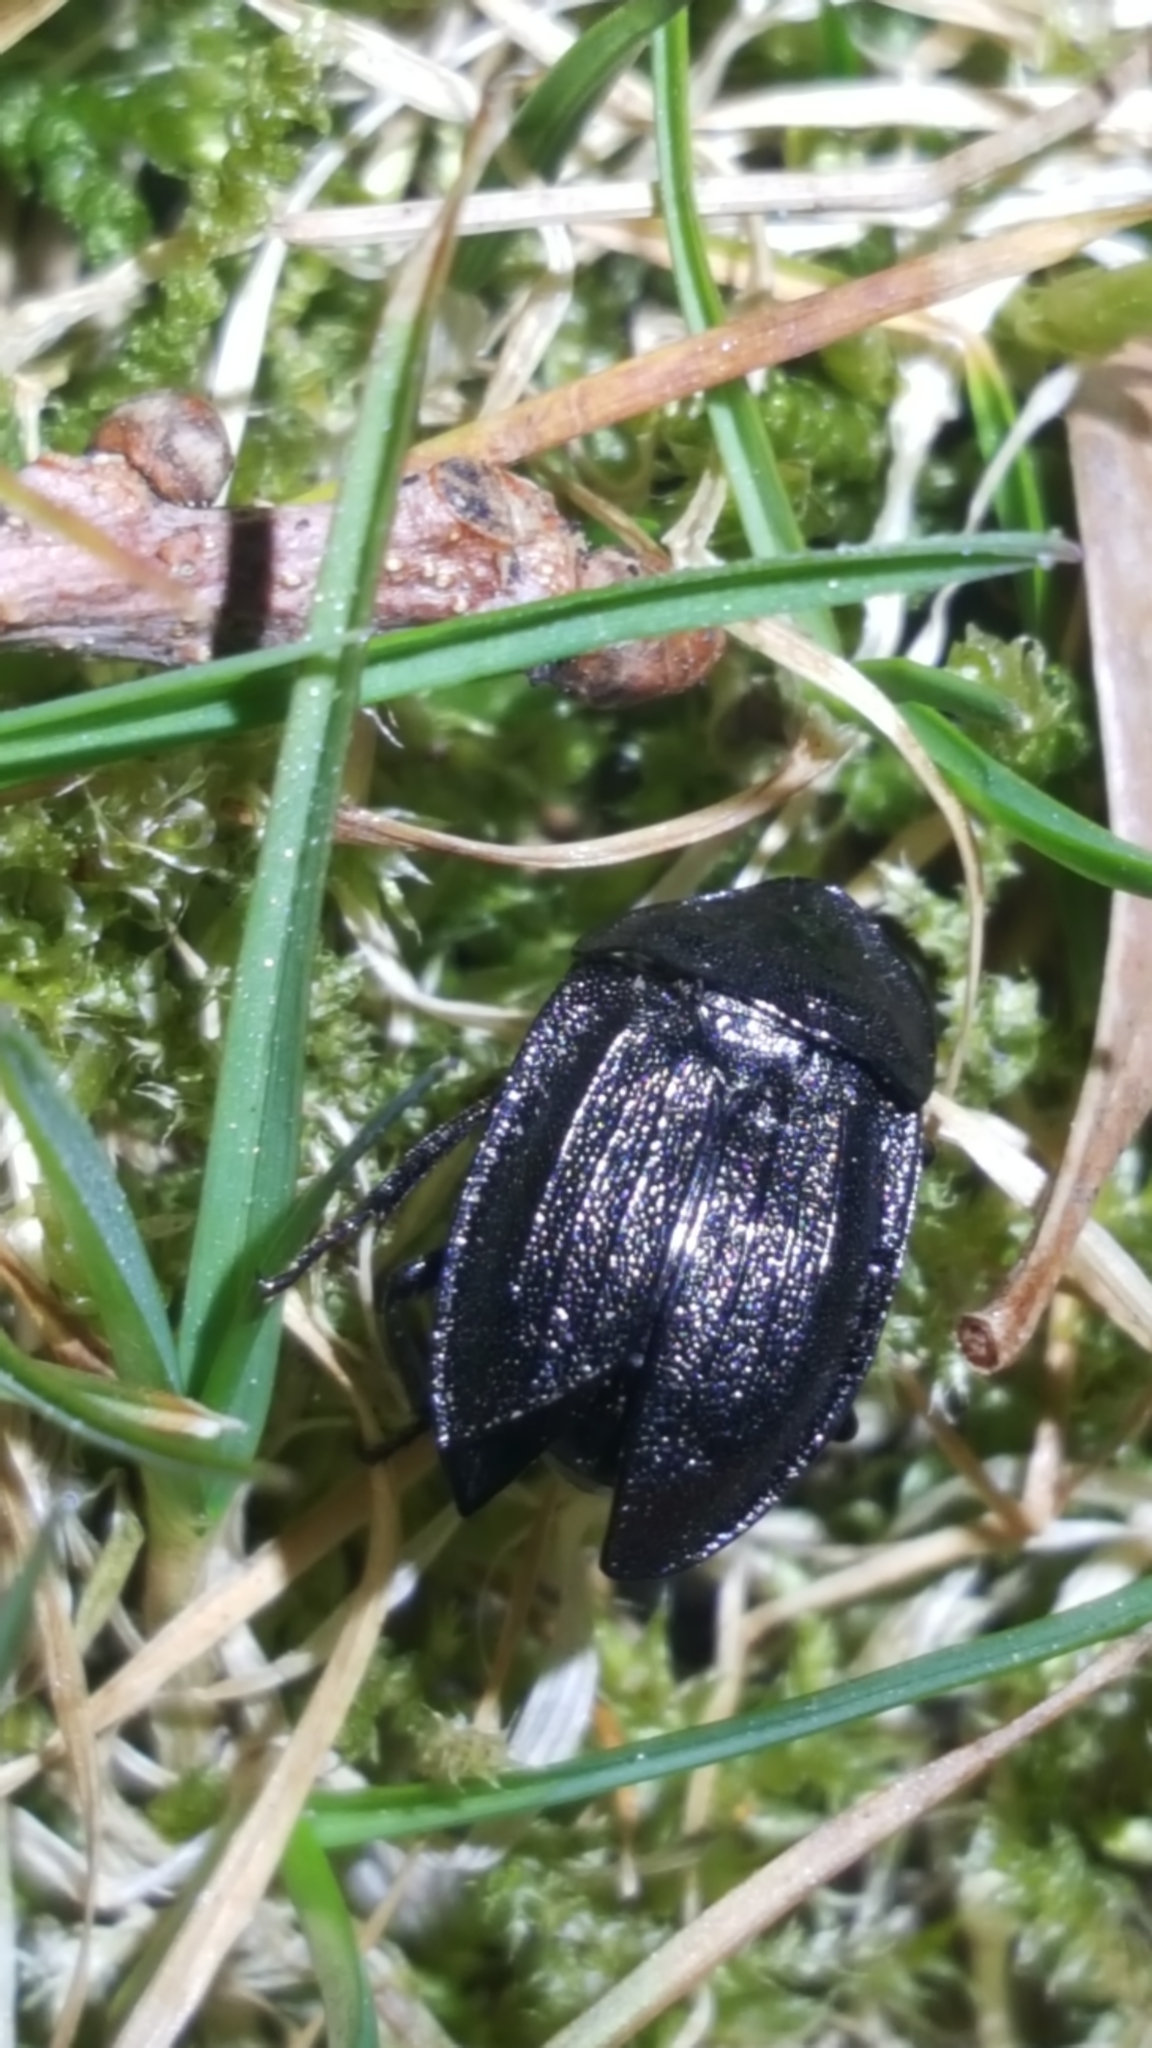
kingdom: Animalia
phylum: Arthropoda
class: Insecta
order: Coleoptera
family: Staphylinidae
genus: Silpha
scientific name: Silpha atrata
